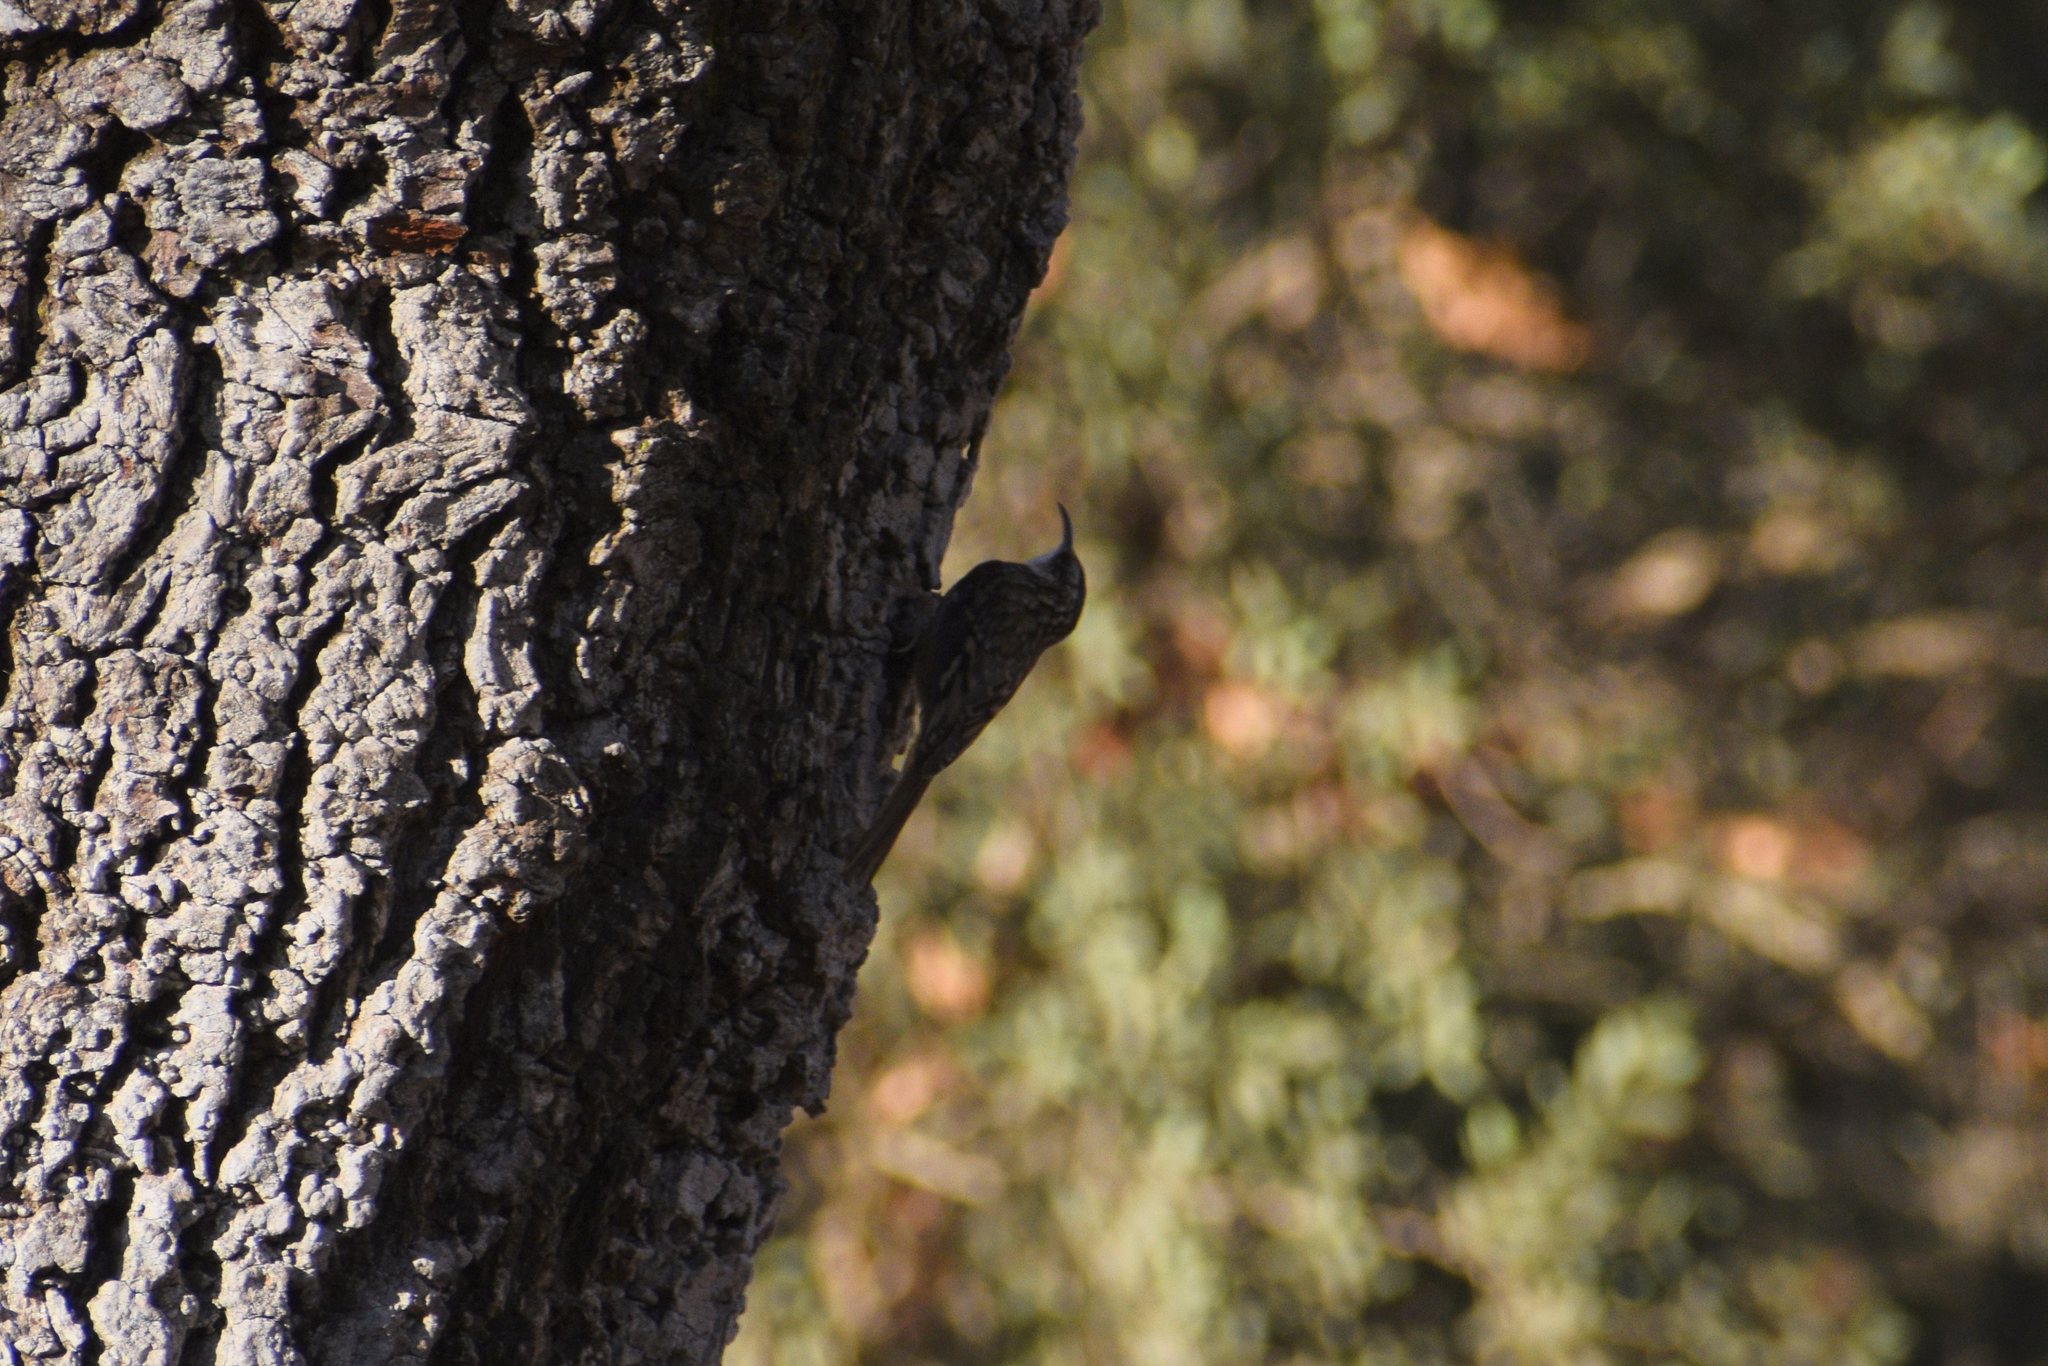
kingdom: Animalia
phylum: Chordata
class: Aves
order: Passeriformes
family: Certhiidae
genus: Certhia
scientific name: Certhia americana
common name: Brown creeper
